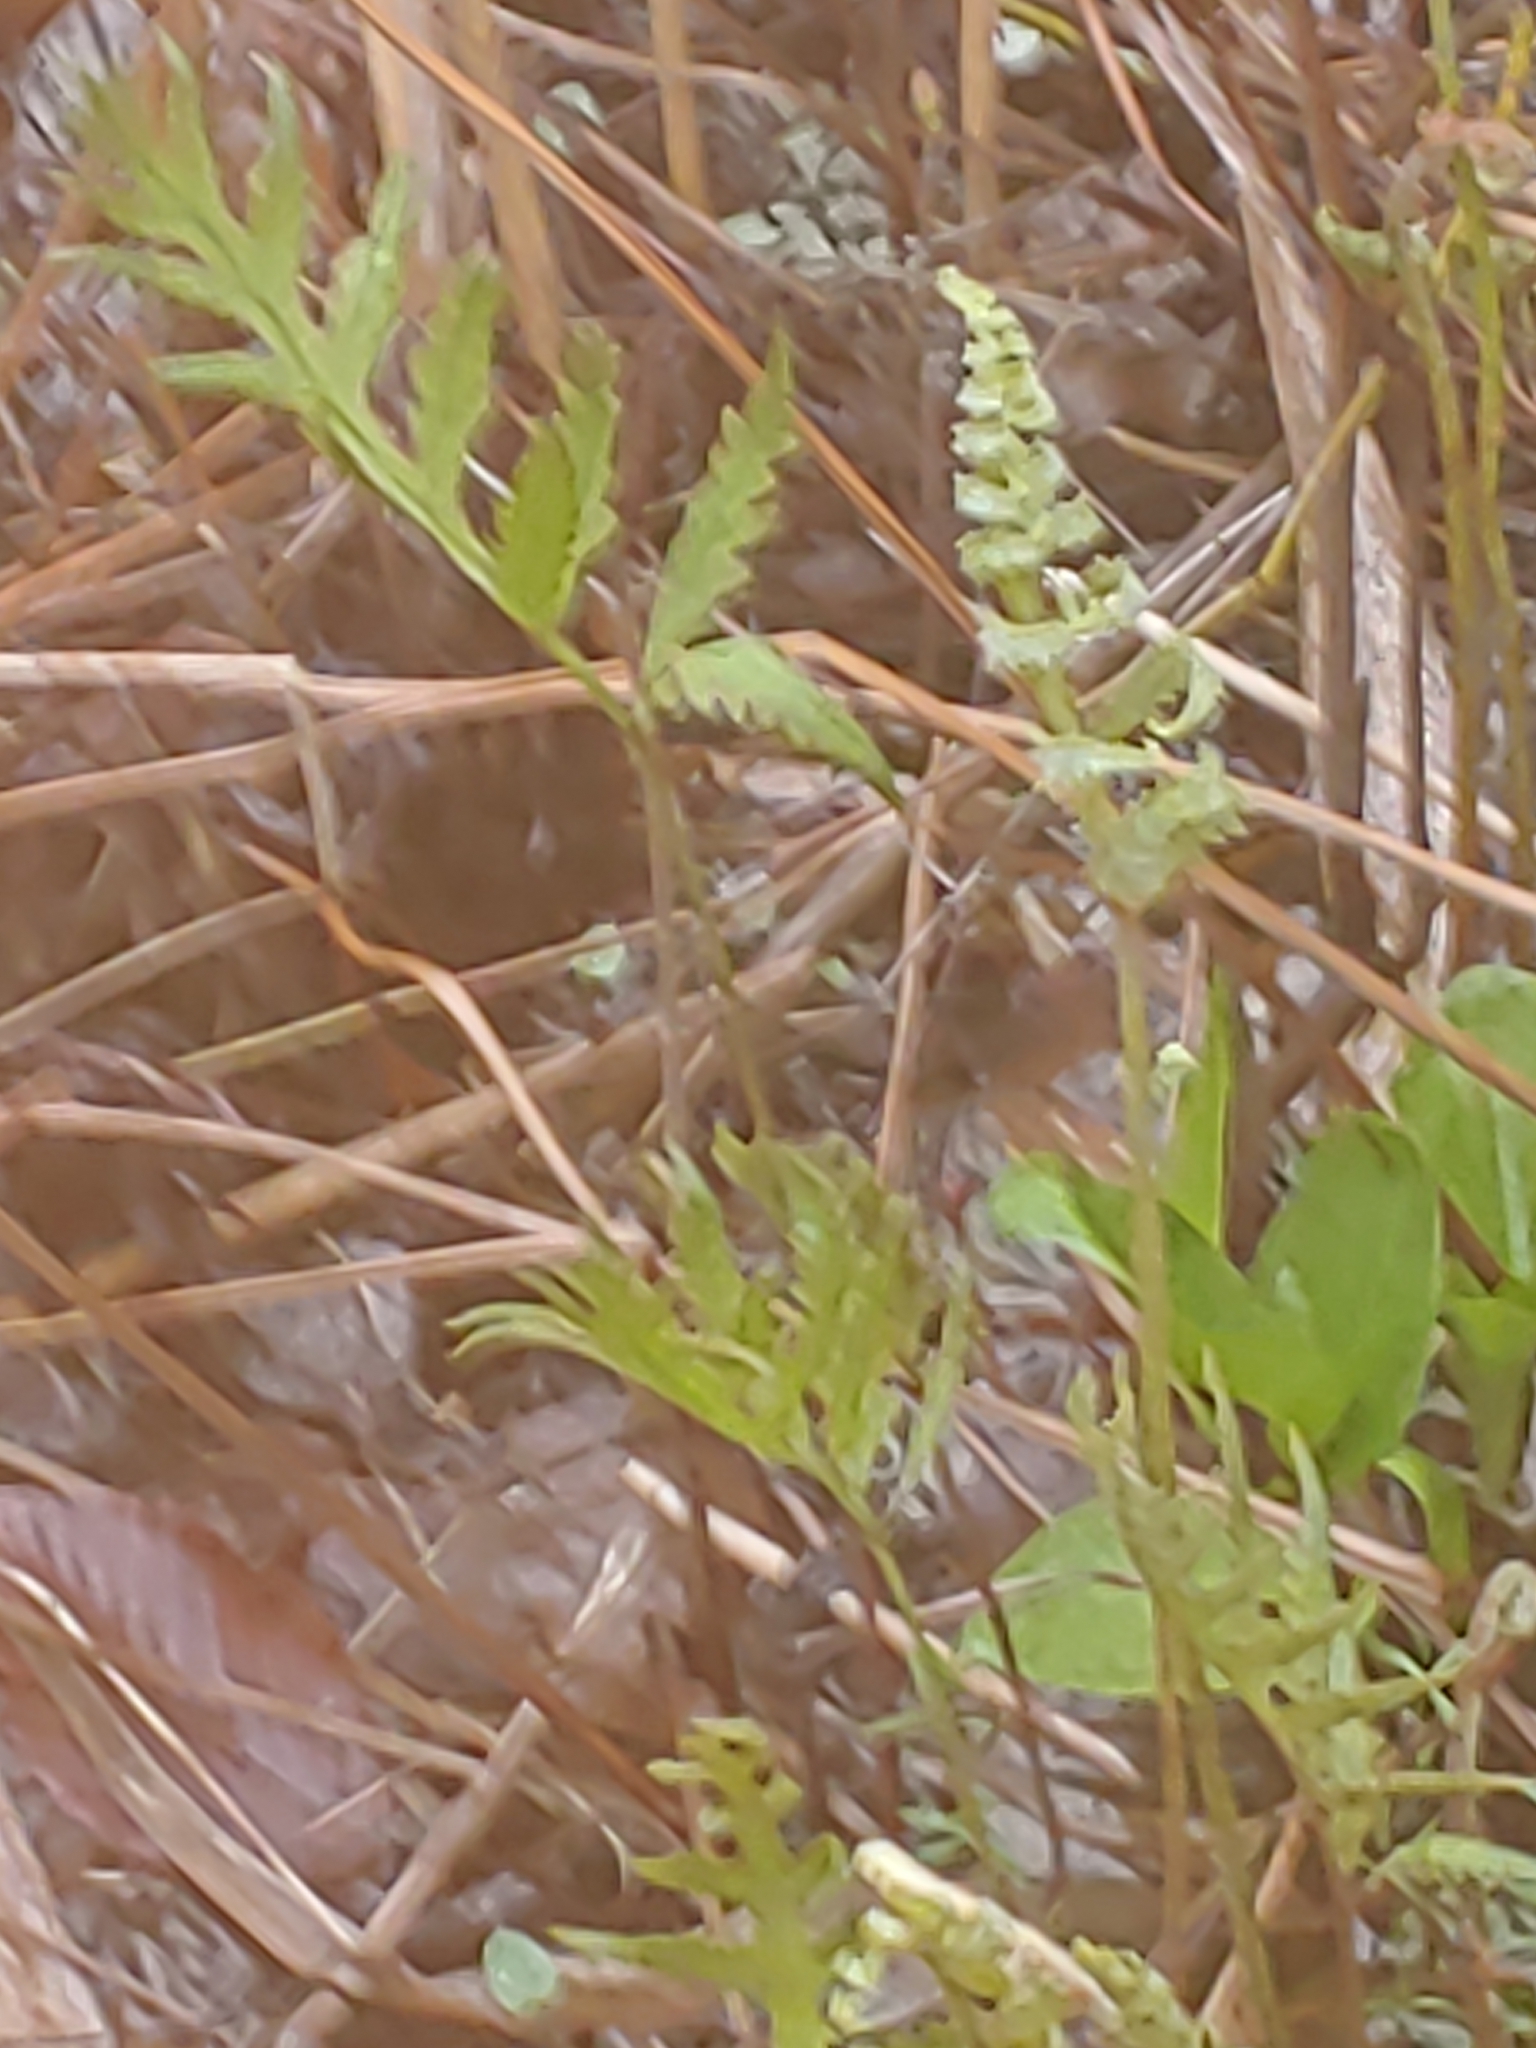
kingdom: Plantae
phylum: Tracheophyta
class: Polypodiopsida
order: Polypodiales
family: Onocleaceae
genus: Onoclea
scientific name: Onoclea sensibilis
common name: Sensitive fern
